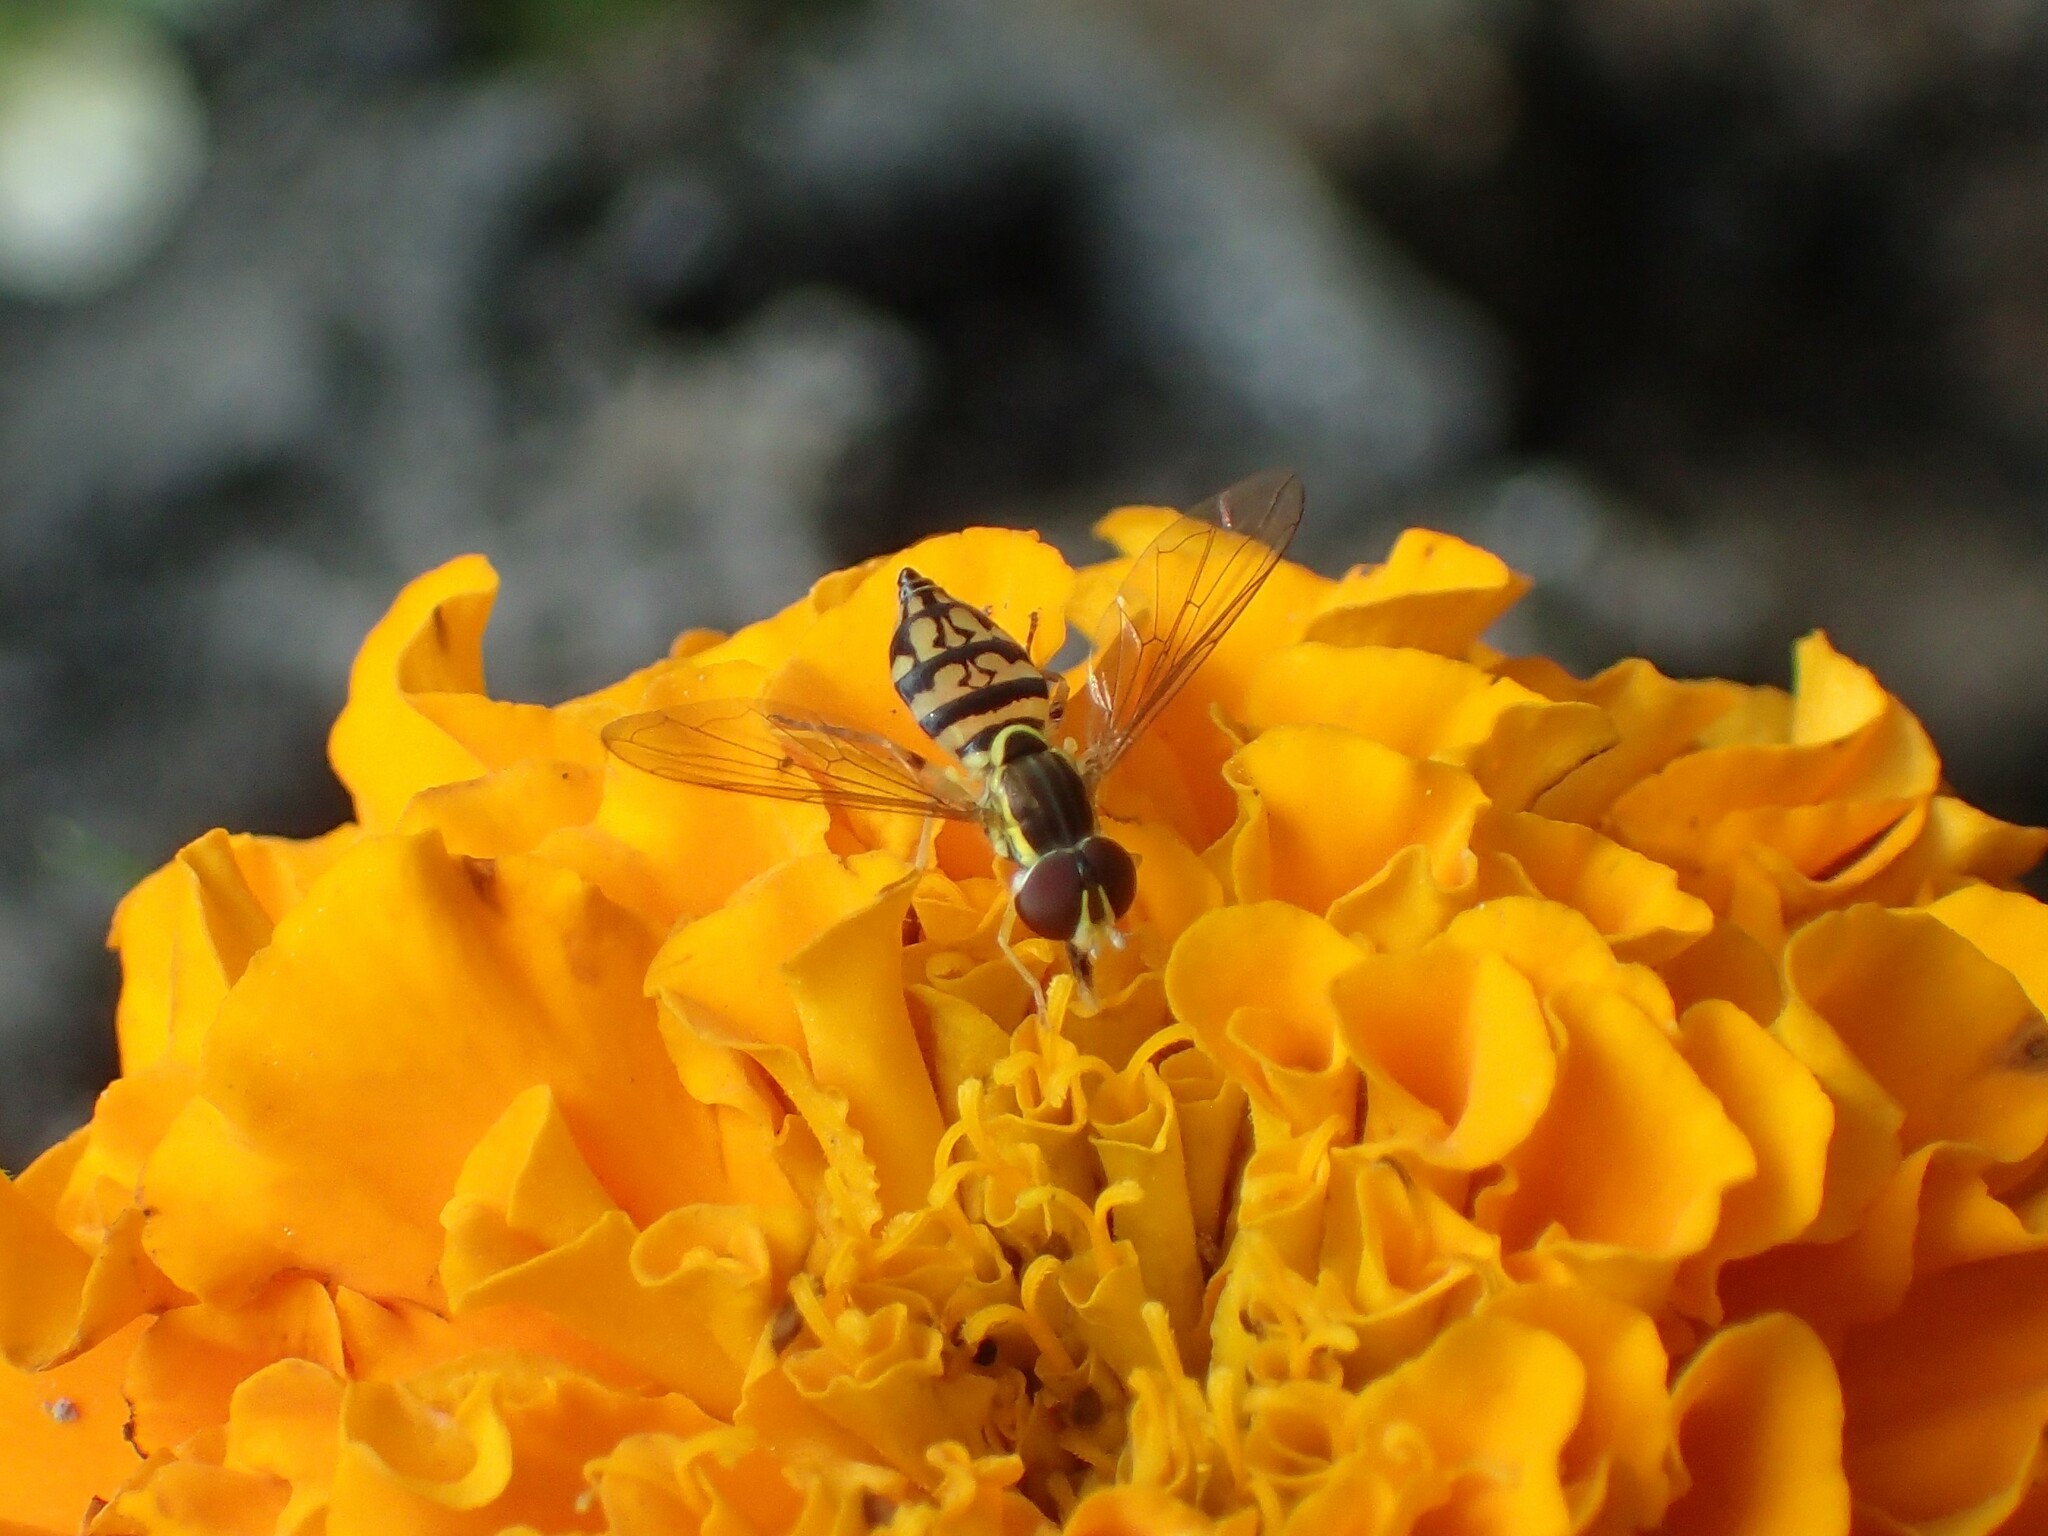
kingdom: Animalia
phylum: Arthropoda
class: Insecta
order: Diptera
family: Syrphidae
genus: Toxomerus
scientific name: Toxomerus geminatus
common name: Eastern calligrapher
